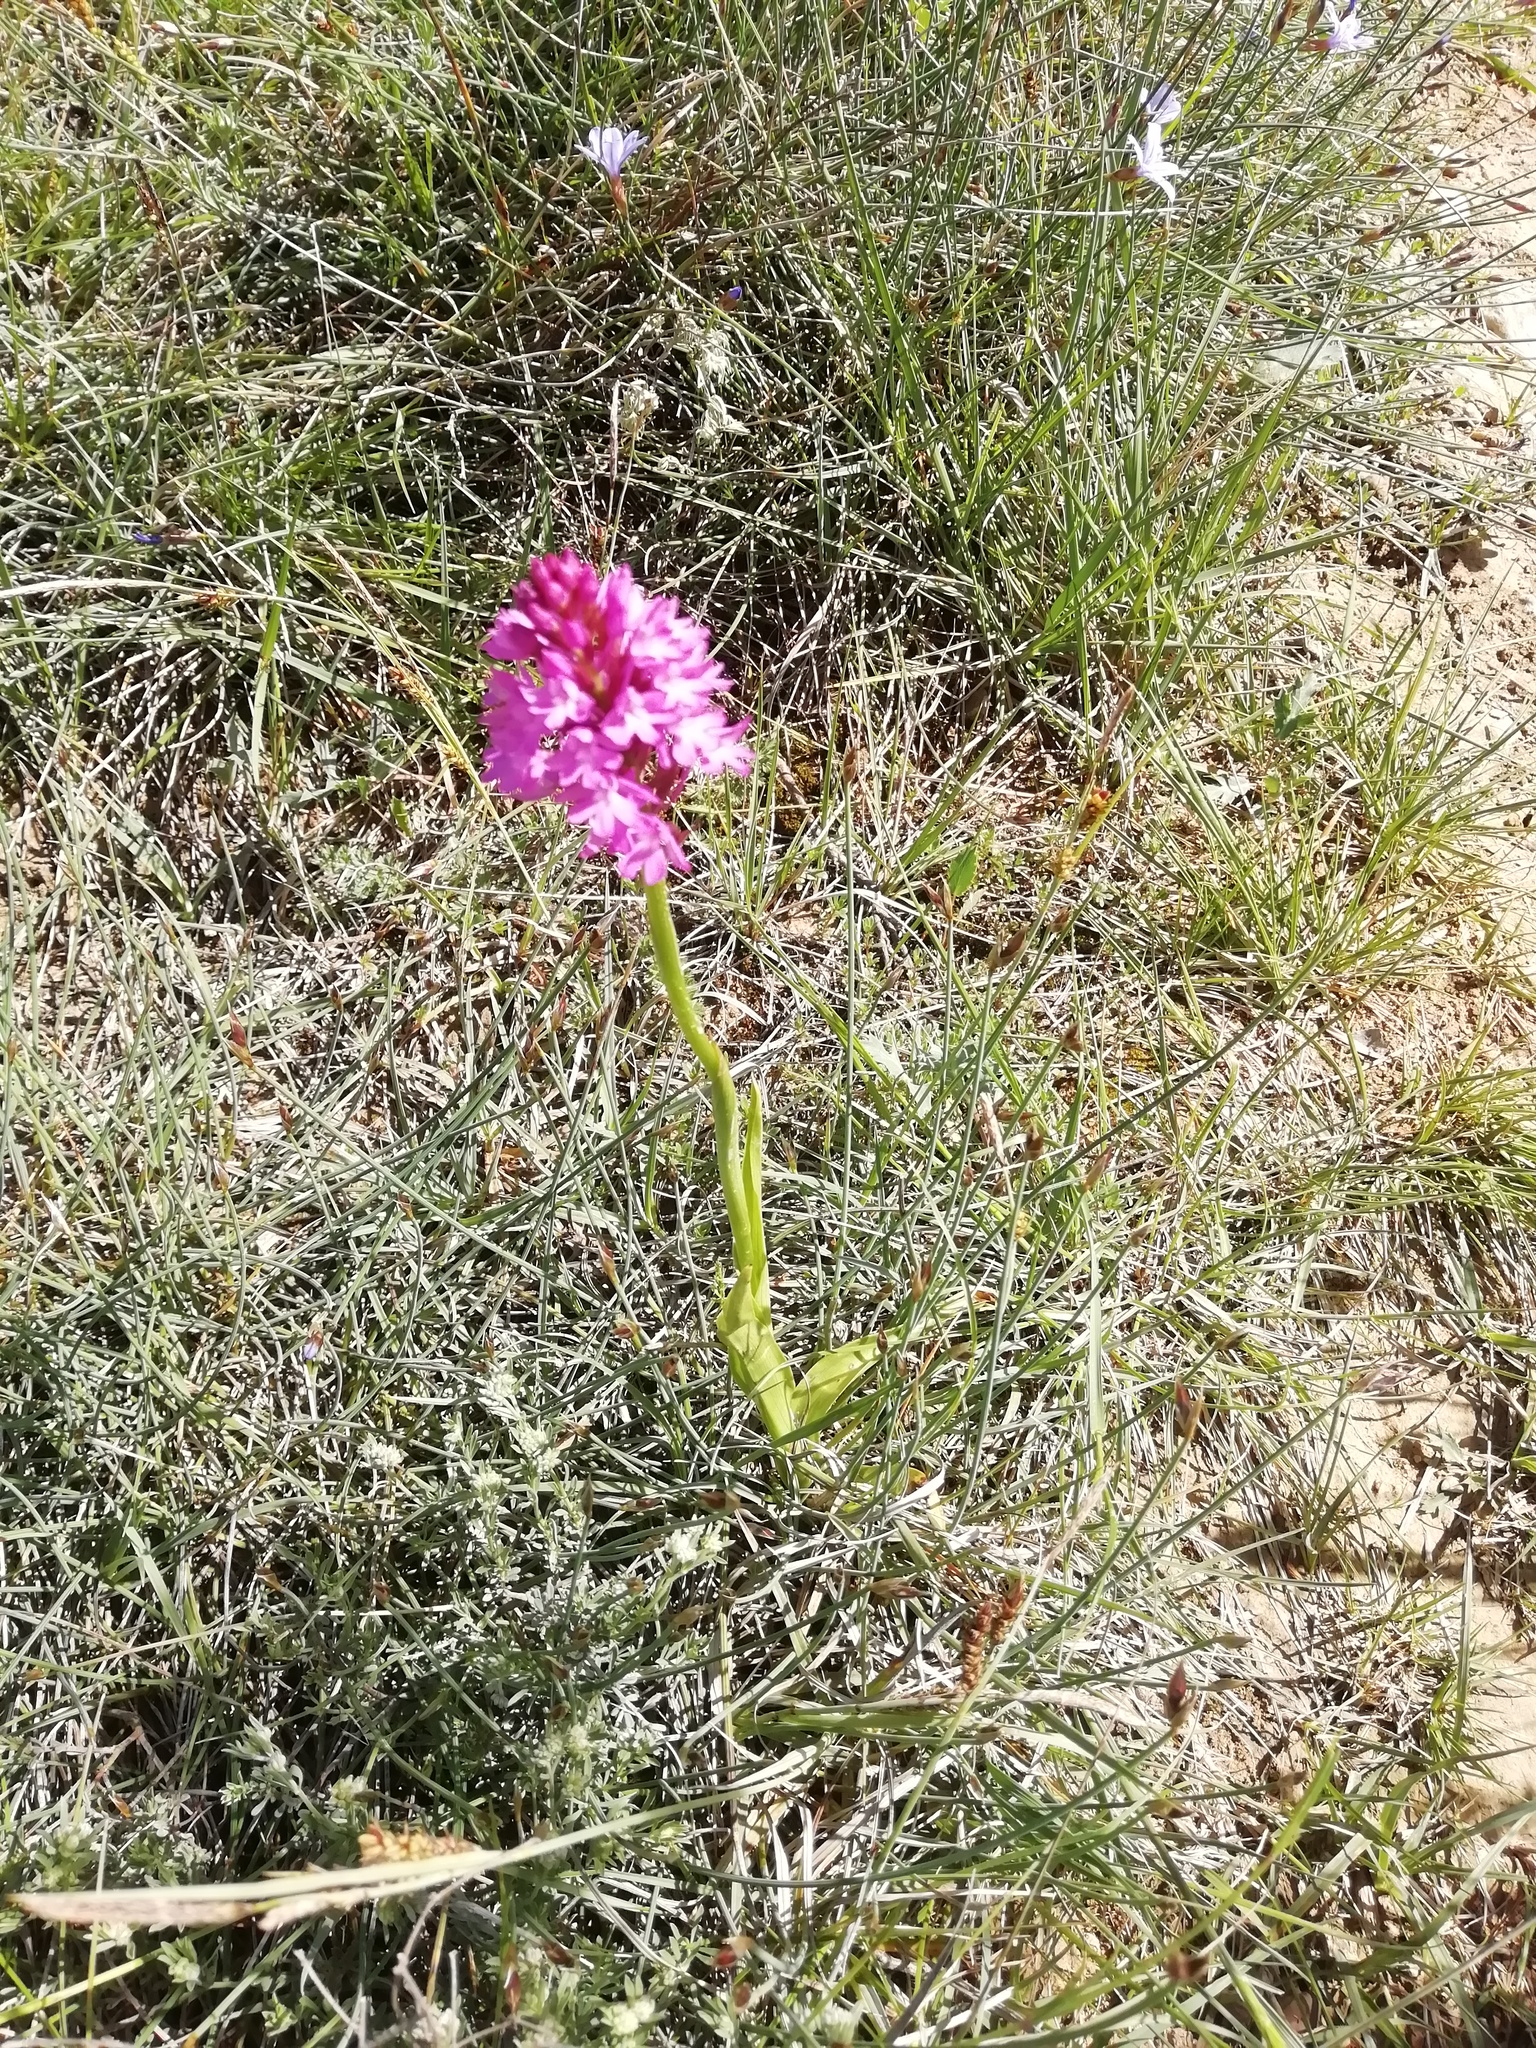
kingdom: Plantae
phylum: Tracheophyta
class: Liliopsida
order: Asparagales
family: Orchidaceae
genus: Anacamptis
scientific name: Anacamptis pyramidalis
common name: Pyramidal orchid
